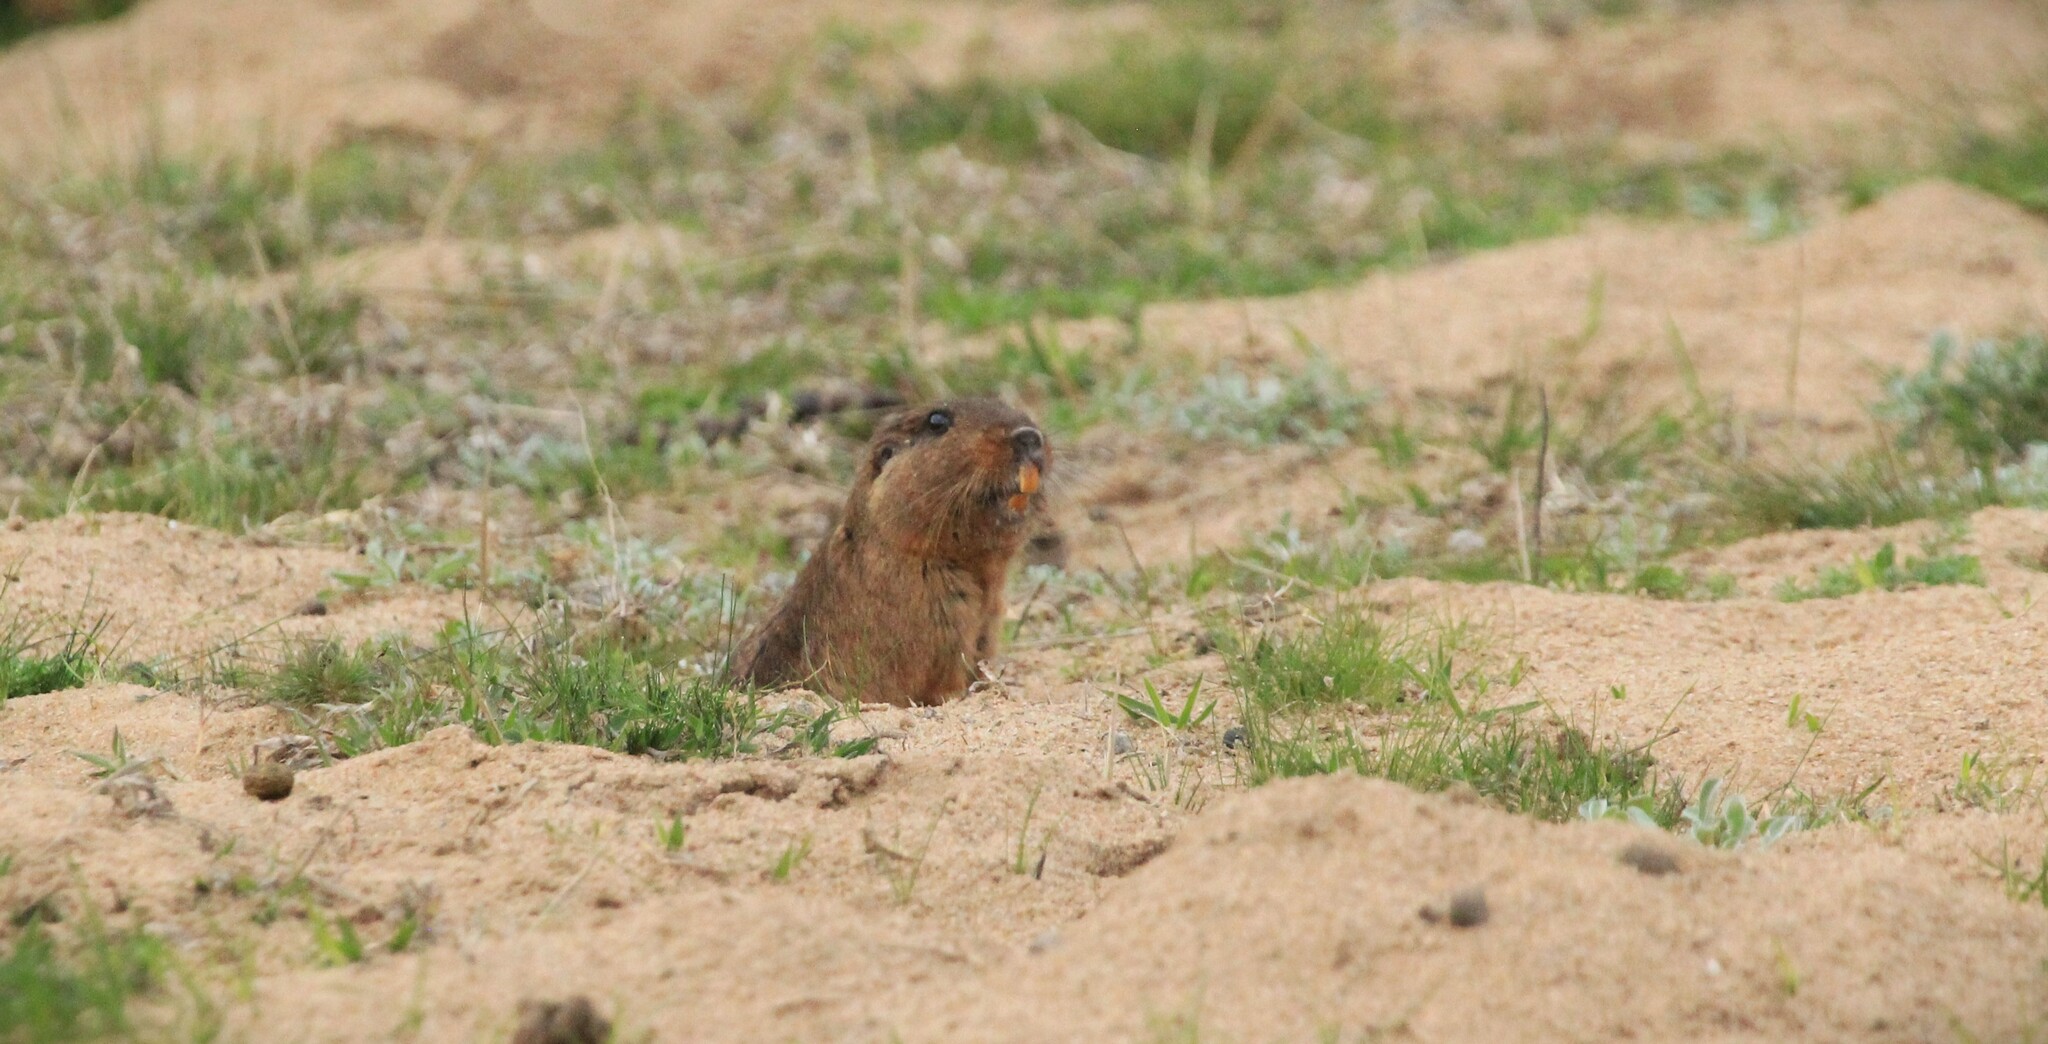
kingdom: Animalia
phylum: Chordata
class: Mammalia
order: Rodentia
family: Ctenomyidae
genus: Ctenomys
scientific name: Ctenomys pearsoni
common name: Pearson's tuco-tuco
